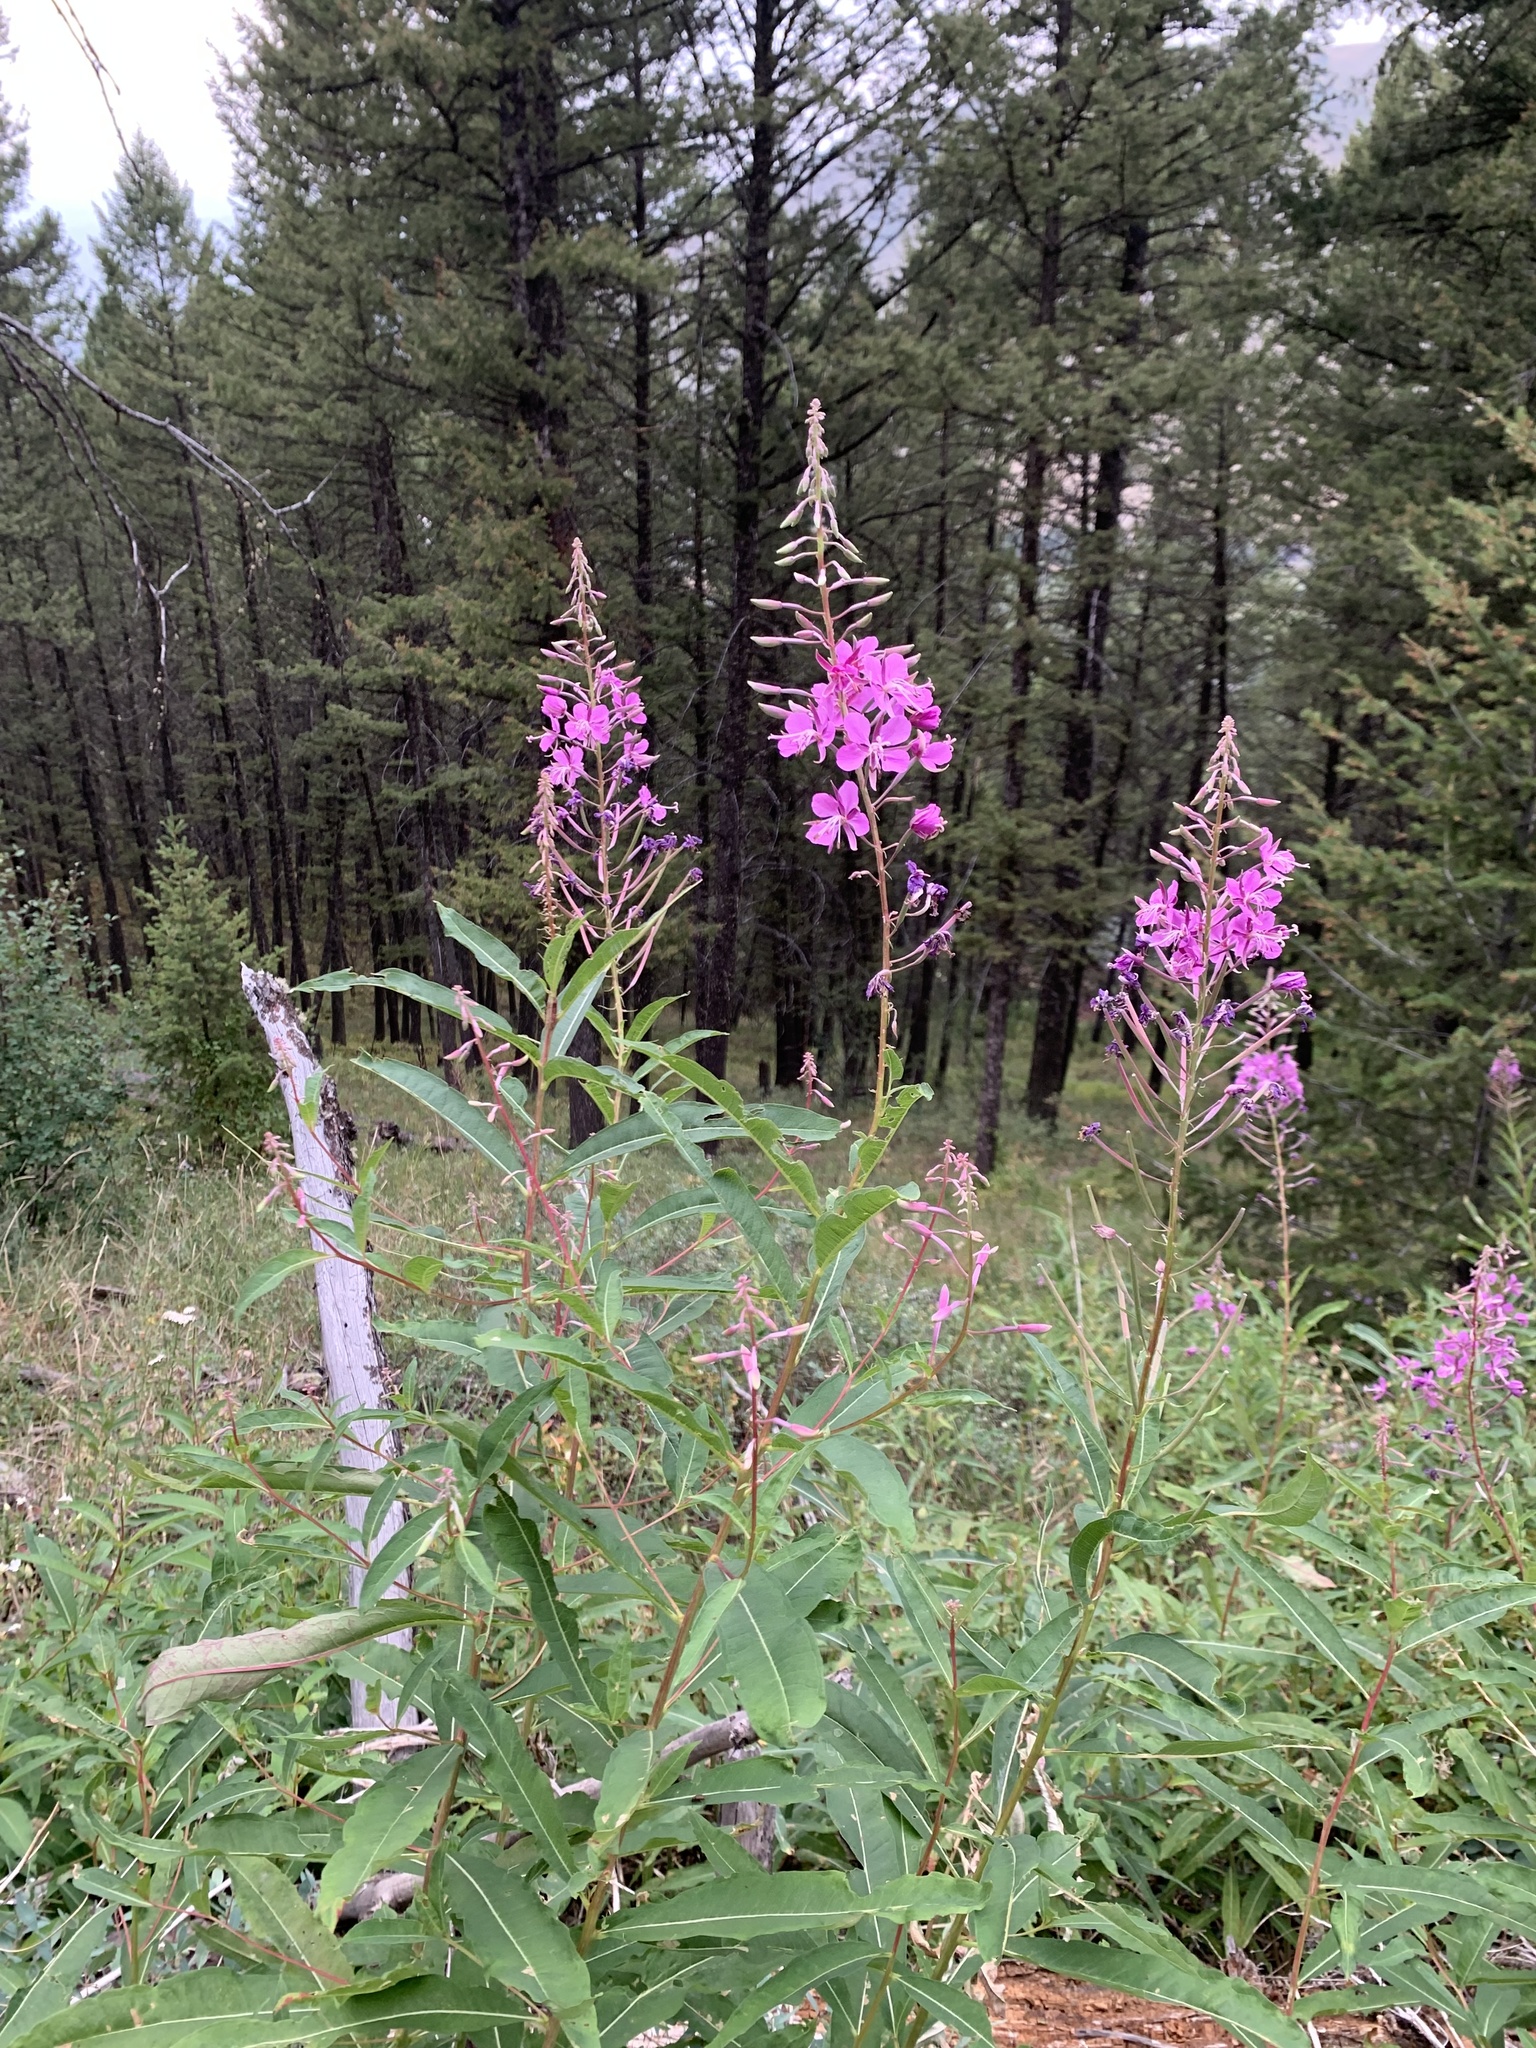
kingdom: Plantae
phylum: Tracheophyta
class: Magnoliopsida
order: Myrtales
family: Onagraceae
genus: Chamaenerion
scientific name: Chamaenerion angustifolium
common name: Fireweed
